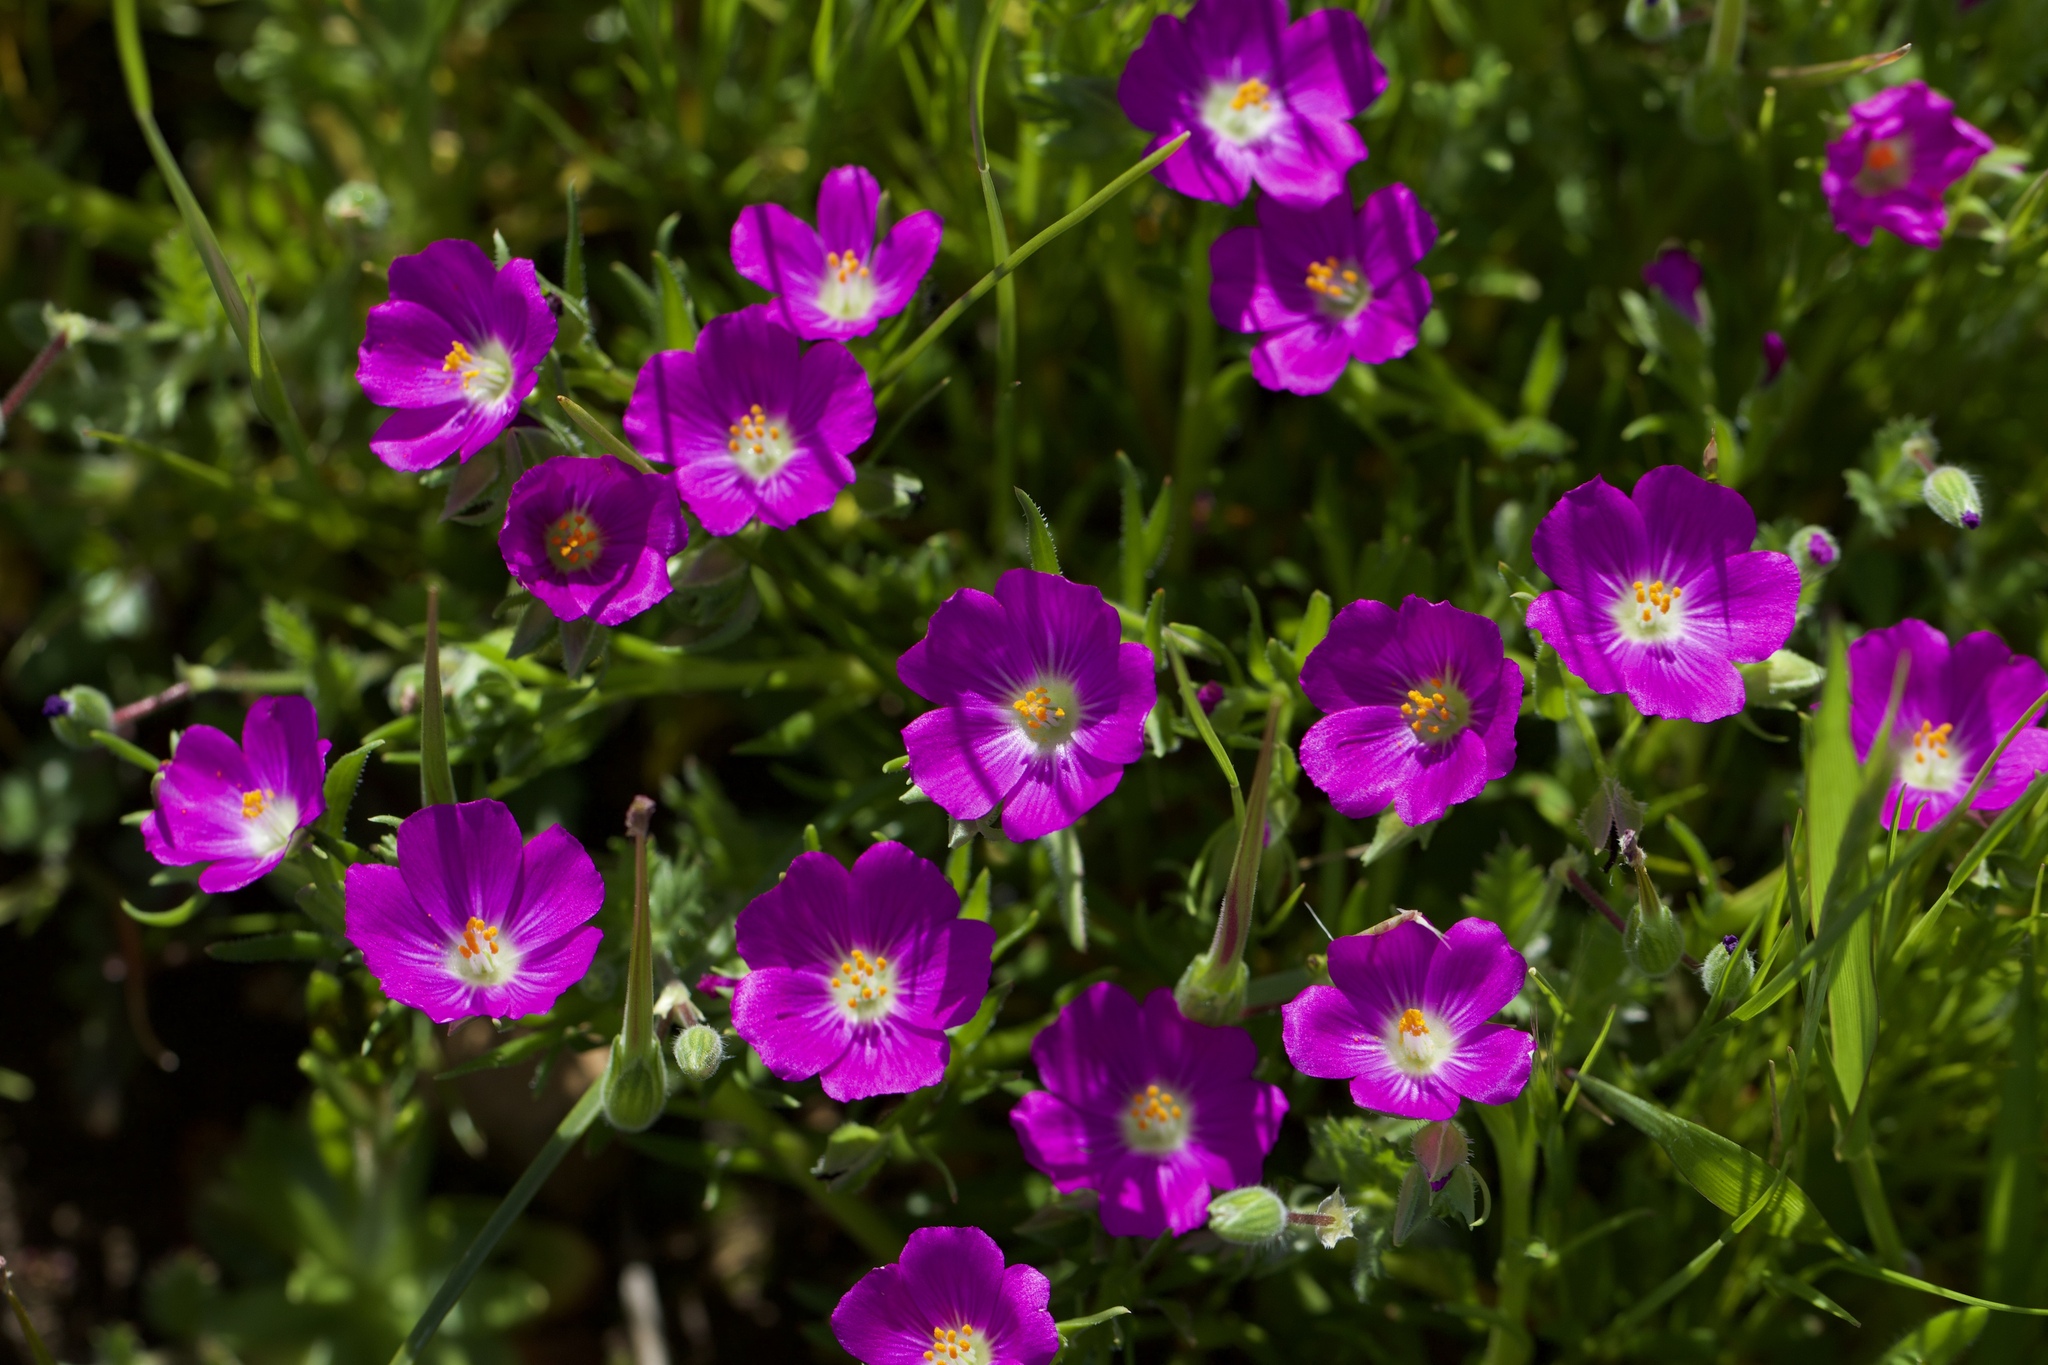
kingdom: Plantae
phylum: Tracheophyta
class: Magnoliopsida
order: Caryophyllales
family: Montiaceae
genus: Calandrinia
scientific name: Calandrinia menziesii
